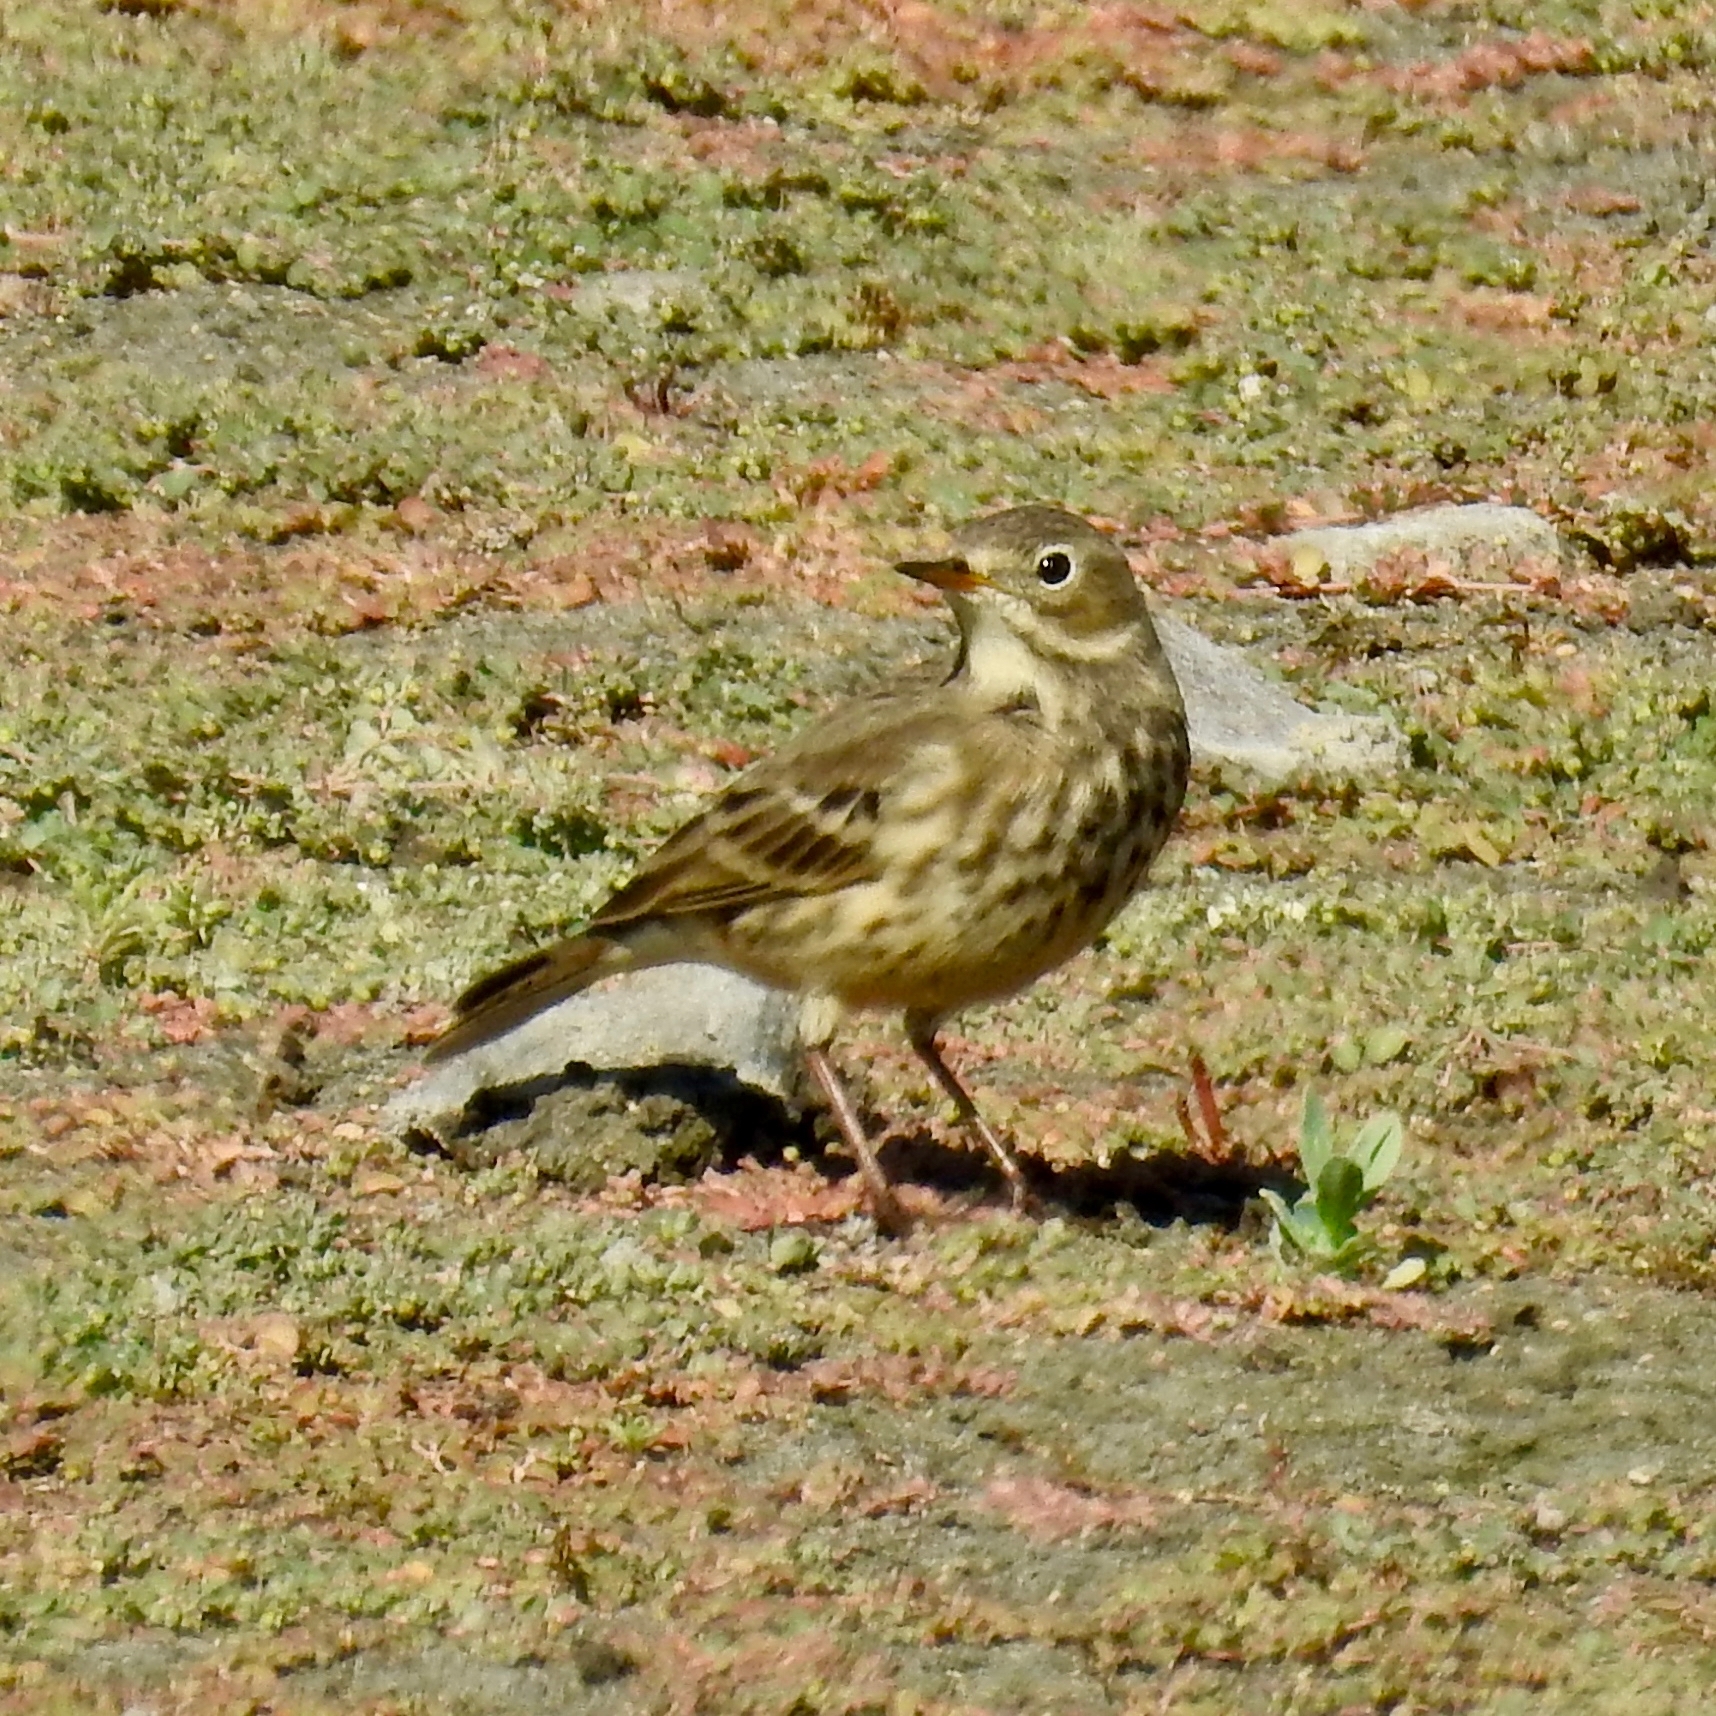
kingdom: Animalia
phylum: Chordata
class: Aves
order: Passeriformes
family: Motacillidae
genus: Anthus
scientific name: Anthus rubescens
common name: Buff-bellied pipit
